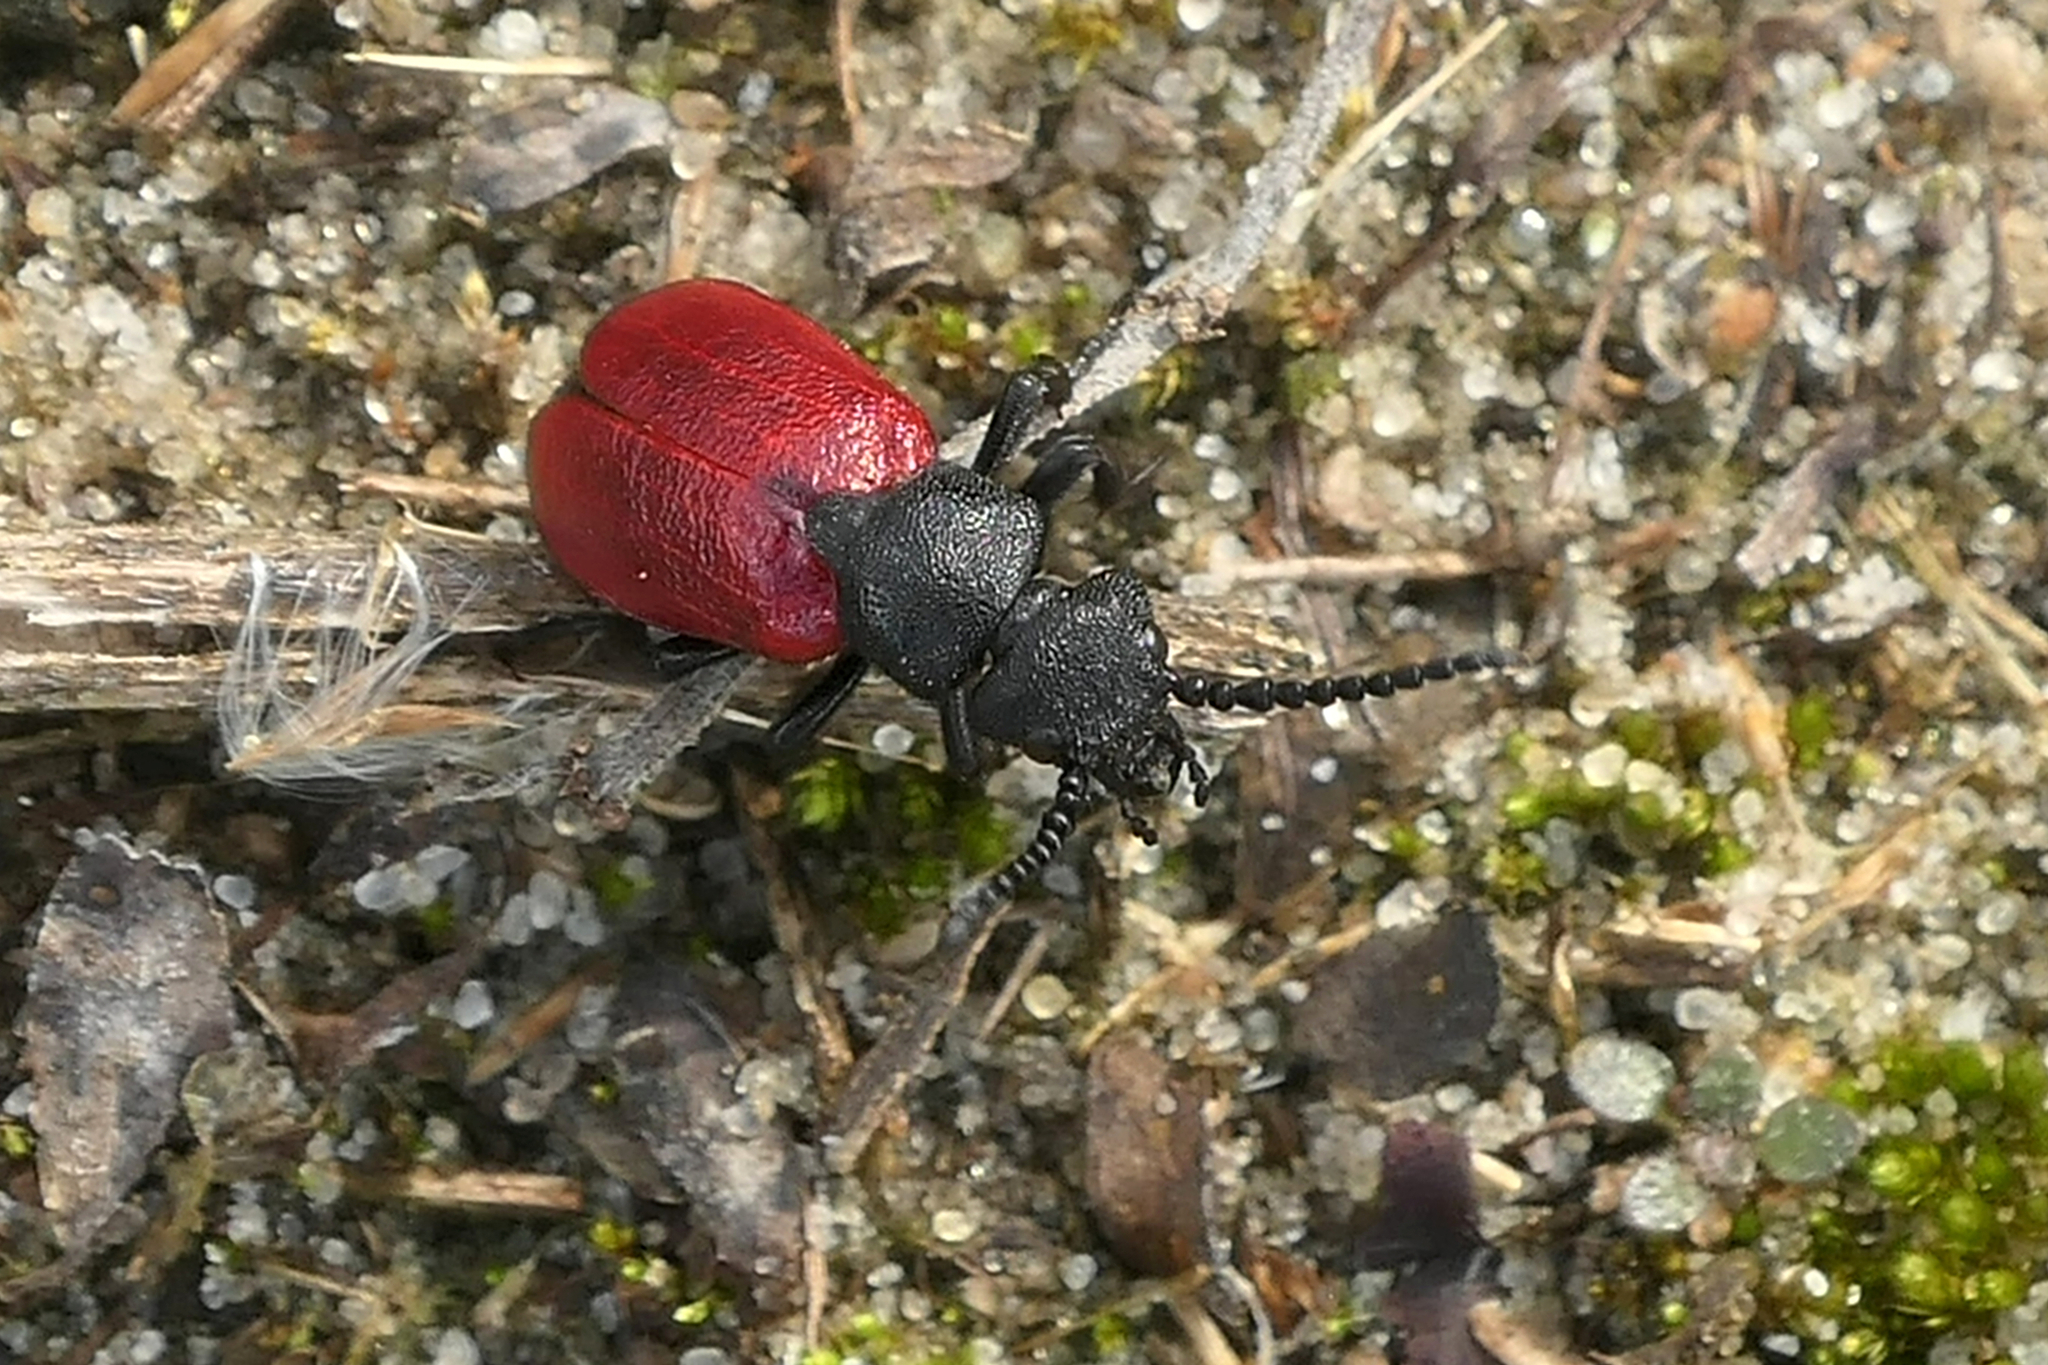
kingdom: Animalia
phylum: Arthropoda
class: Insecta
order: Coleoptera
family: Meloidae
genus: Tricrania
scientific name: Tricrania sanguinipennis
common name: Blood-winged blister beetle
